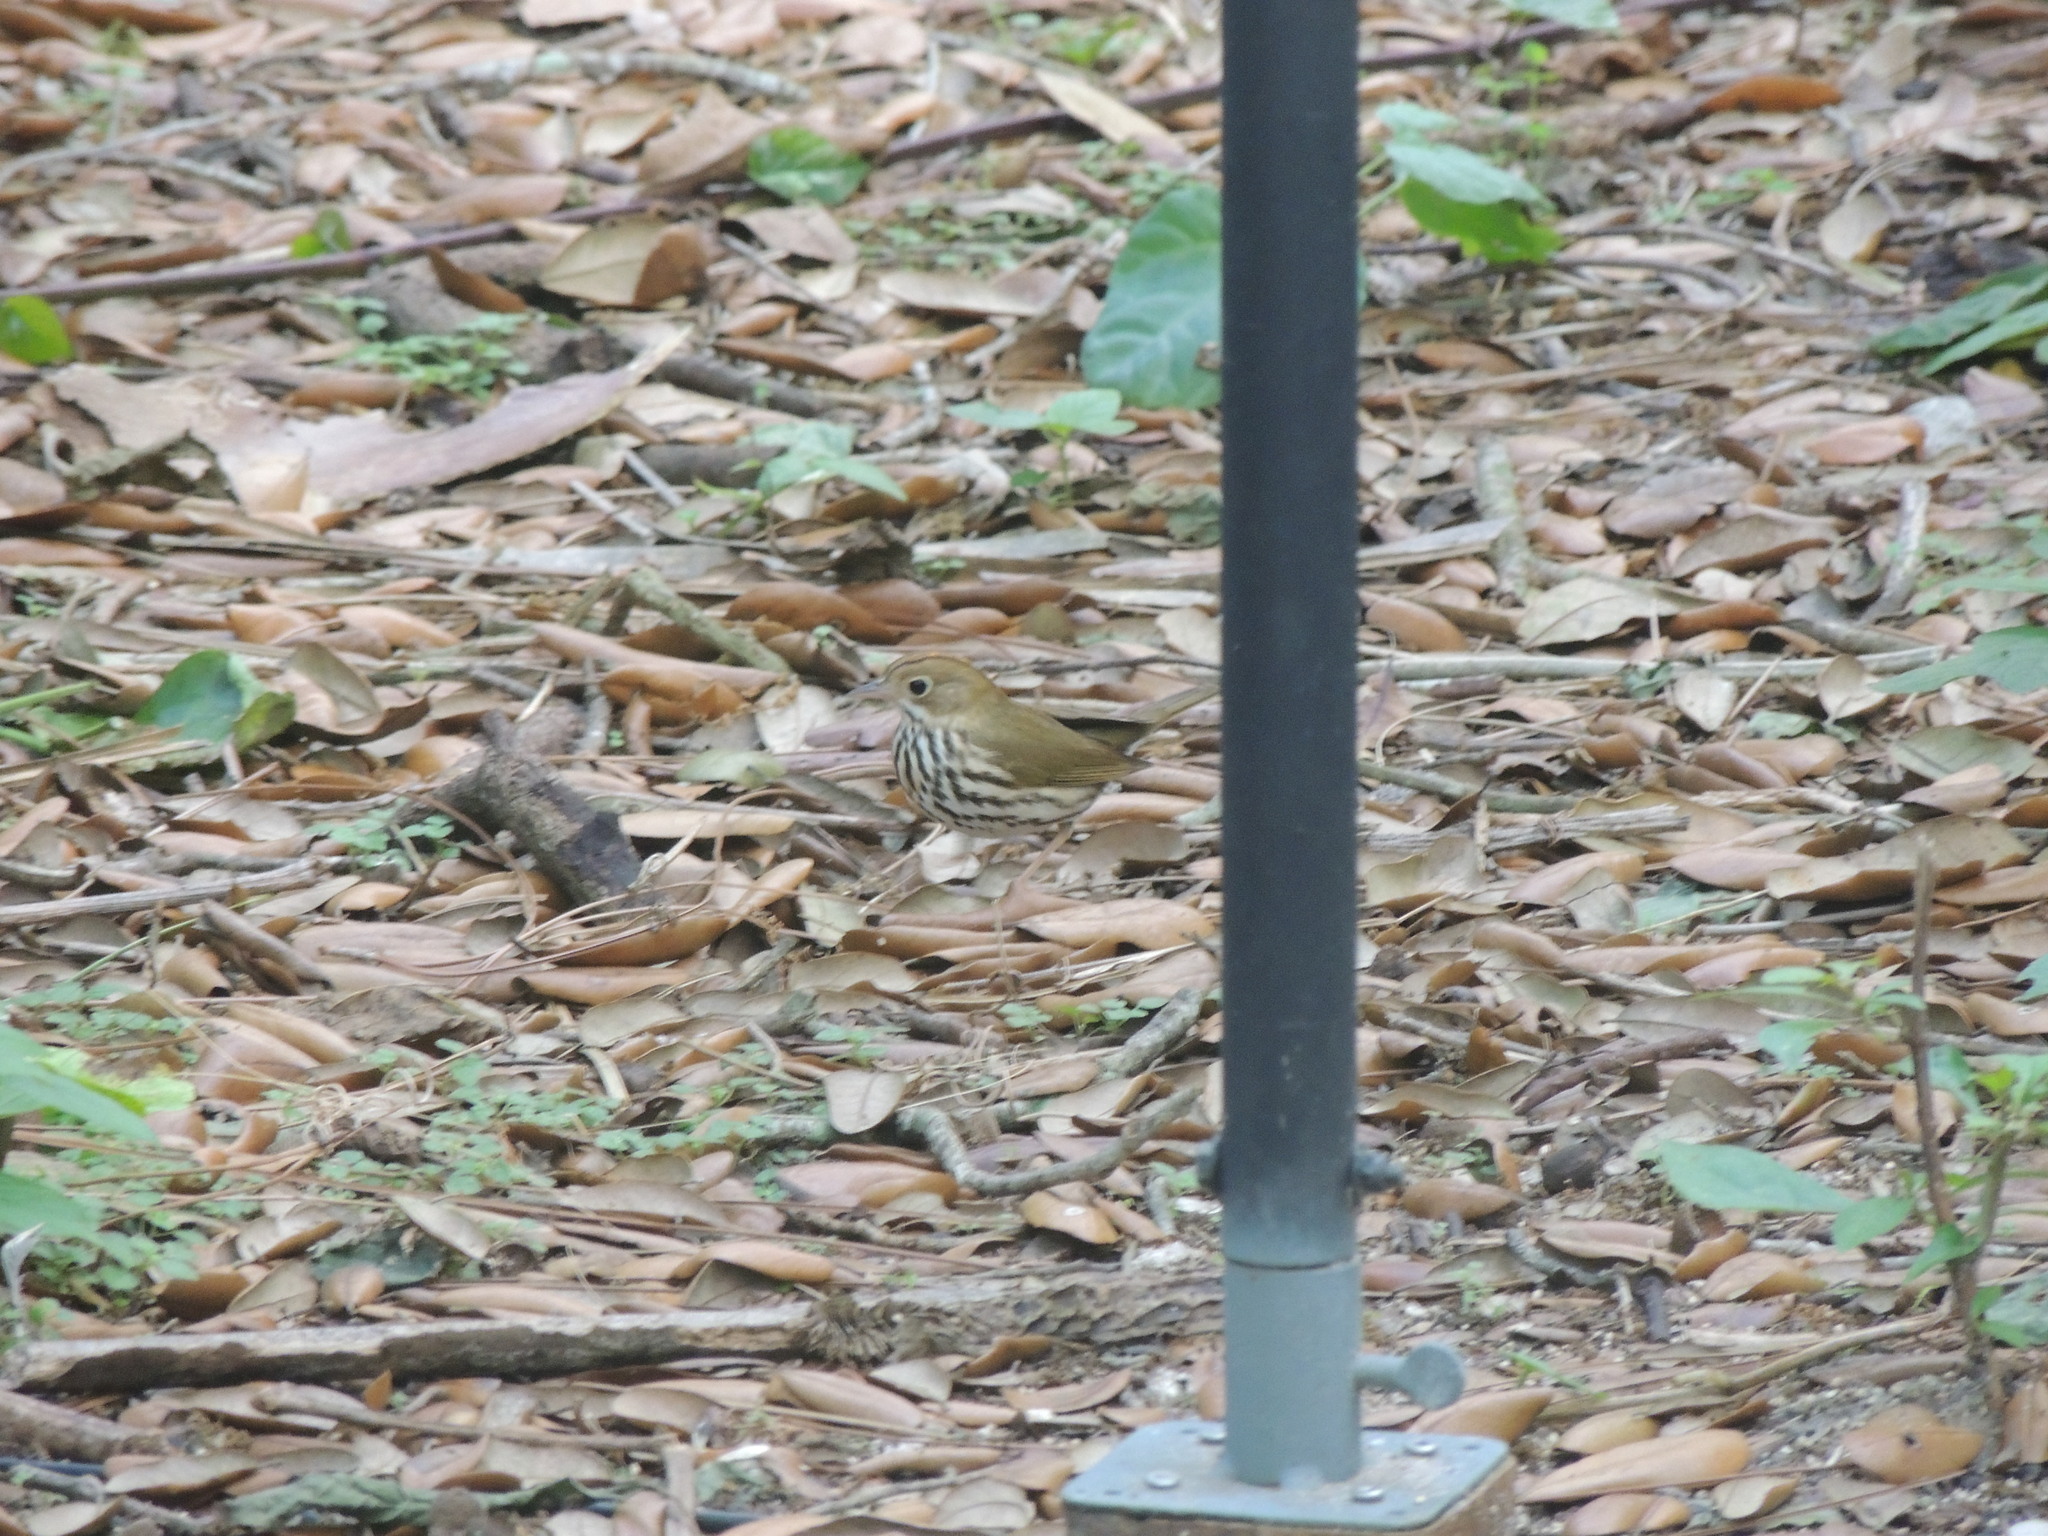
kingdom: Animalia
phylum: Chordata
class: Aves
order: Passeriformes
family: Parulidae
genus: Seiurus
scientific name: Seiurus aurocapilla
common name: Ovenbird
